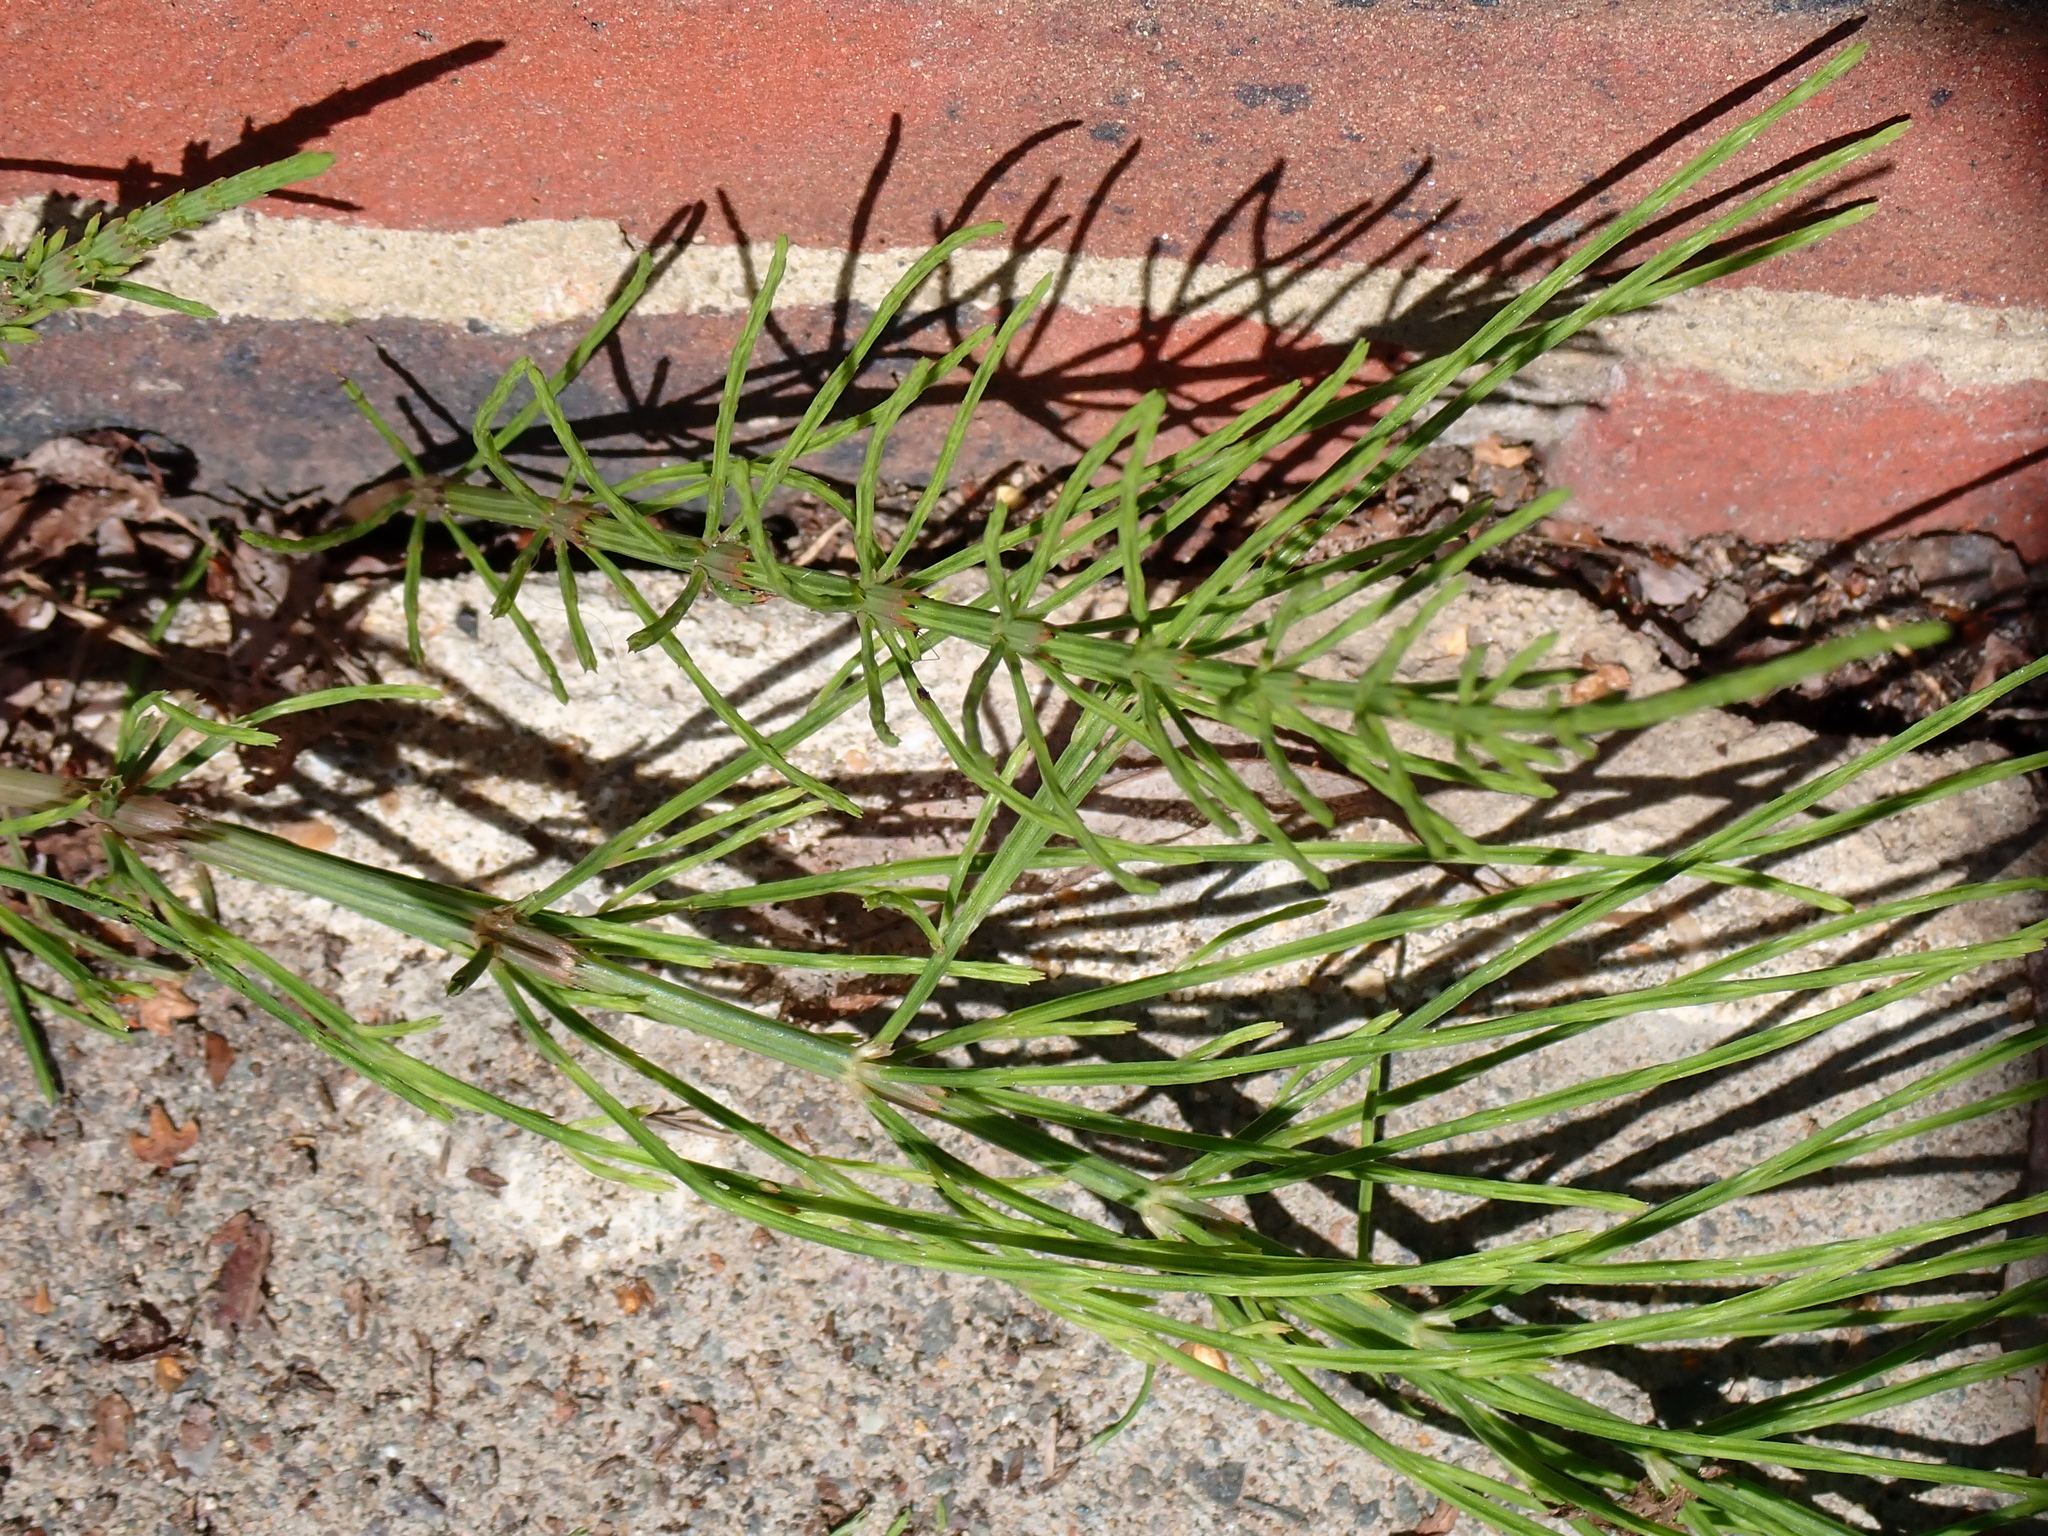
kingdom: Plantae
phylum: Tracheophyta
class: Polypodiopsida
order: Equisetales
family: Equisetaceae
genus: Equisetum
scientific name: Equisetum arvense
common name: Field horsetail
